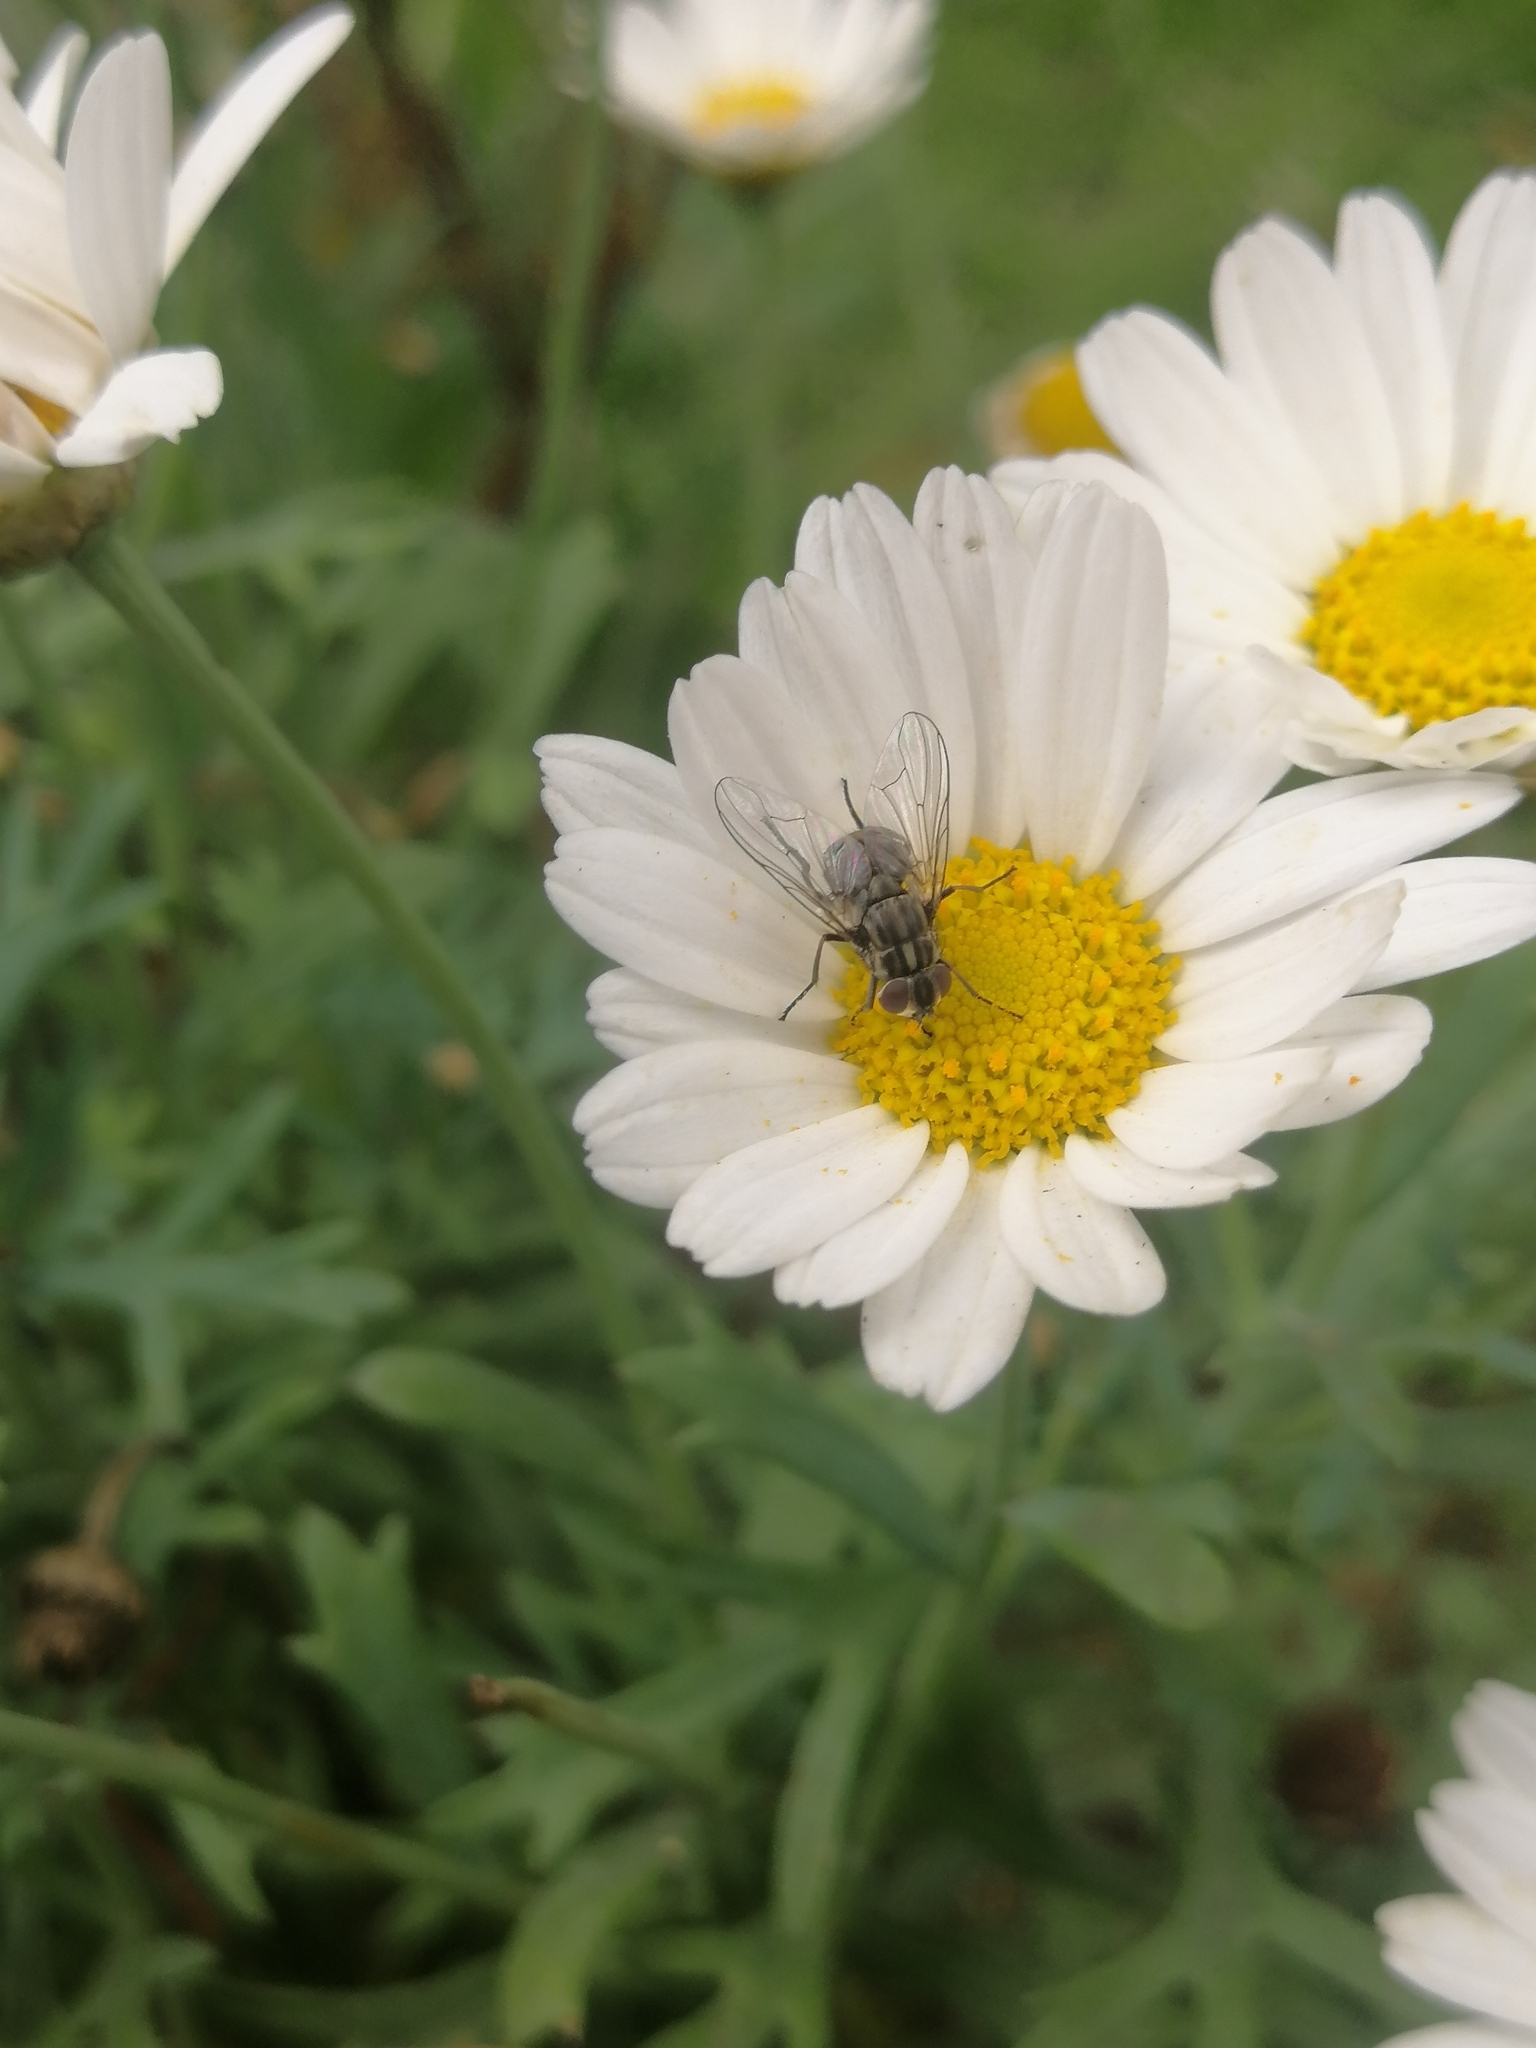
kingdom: Animalia
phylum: Arthropoda
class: Insecta
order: Diptera
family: Muscidae
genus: Stomoxys
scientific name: Stomoxys calcitrans
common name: Stable fly
